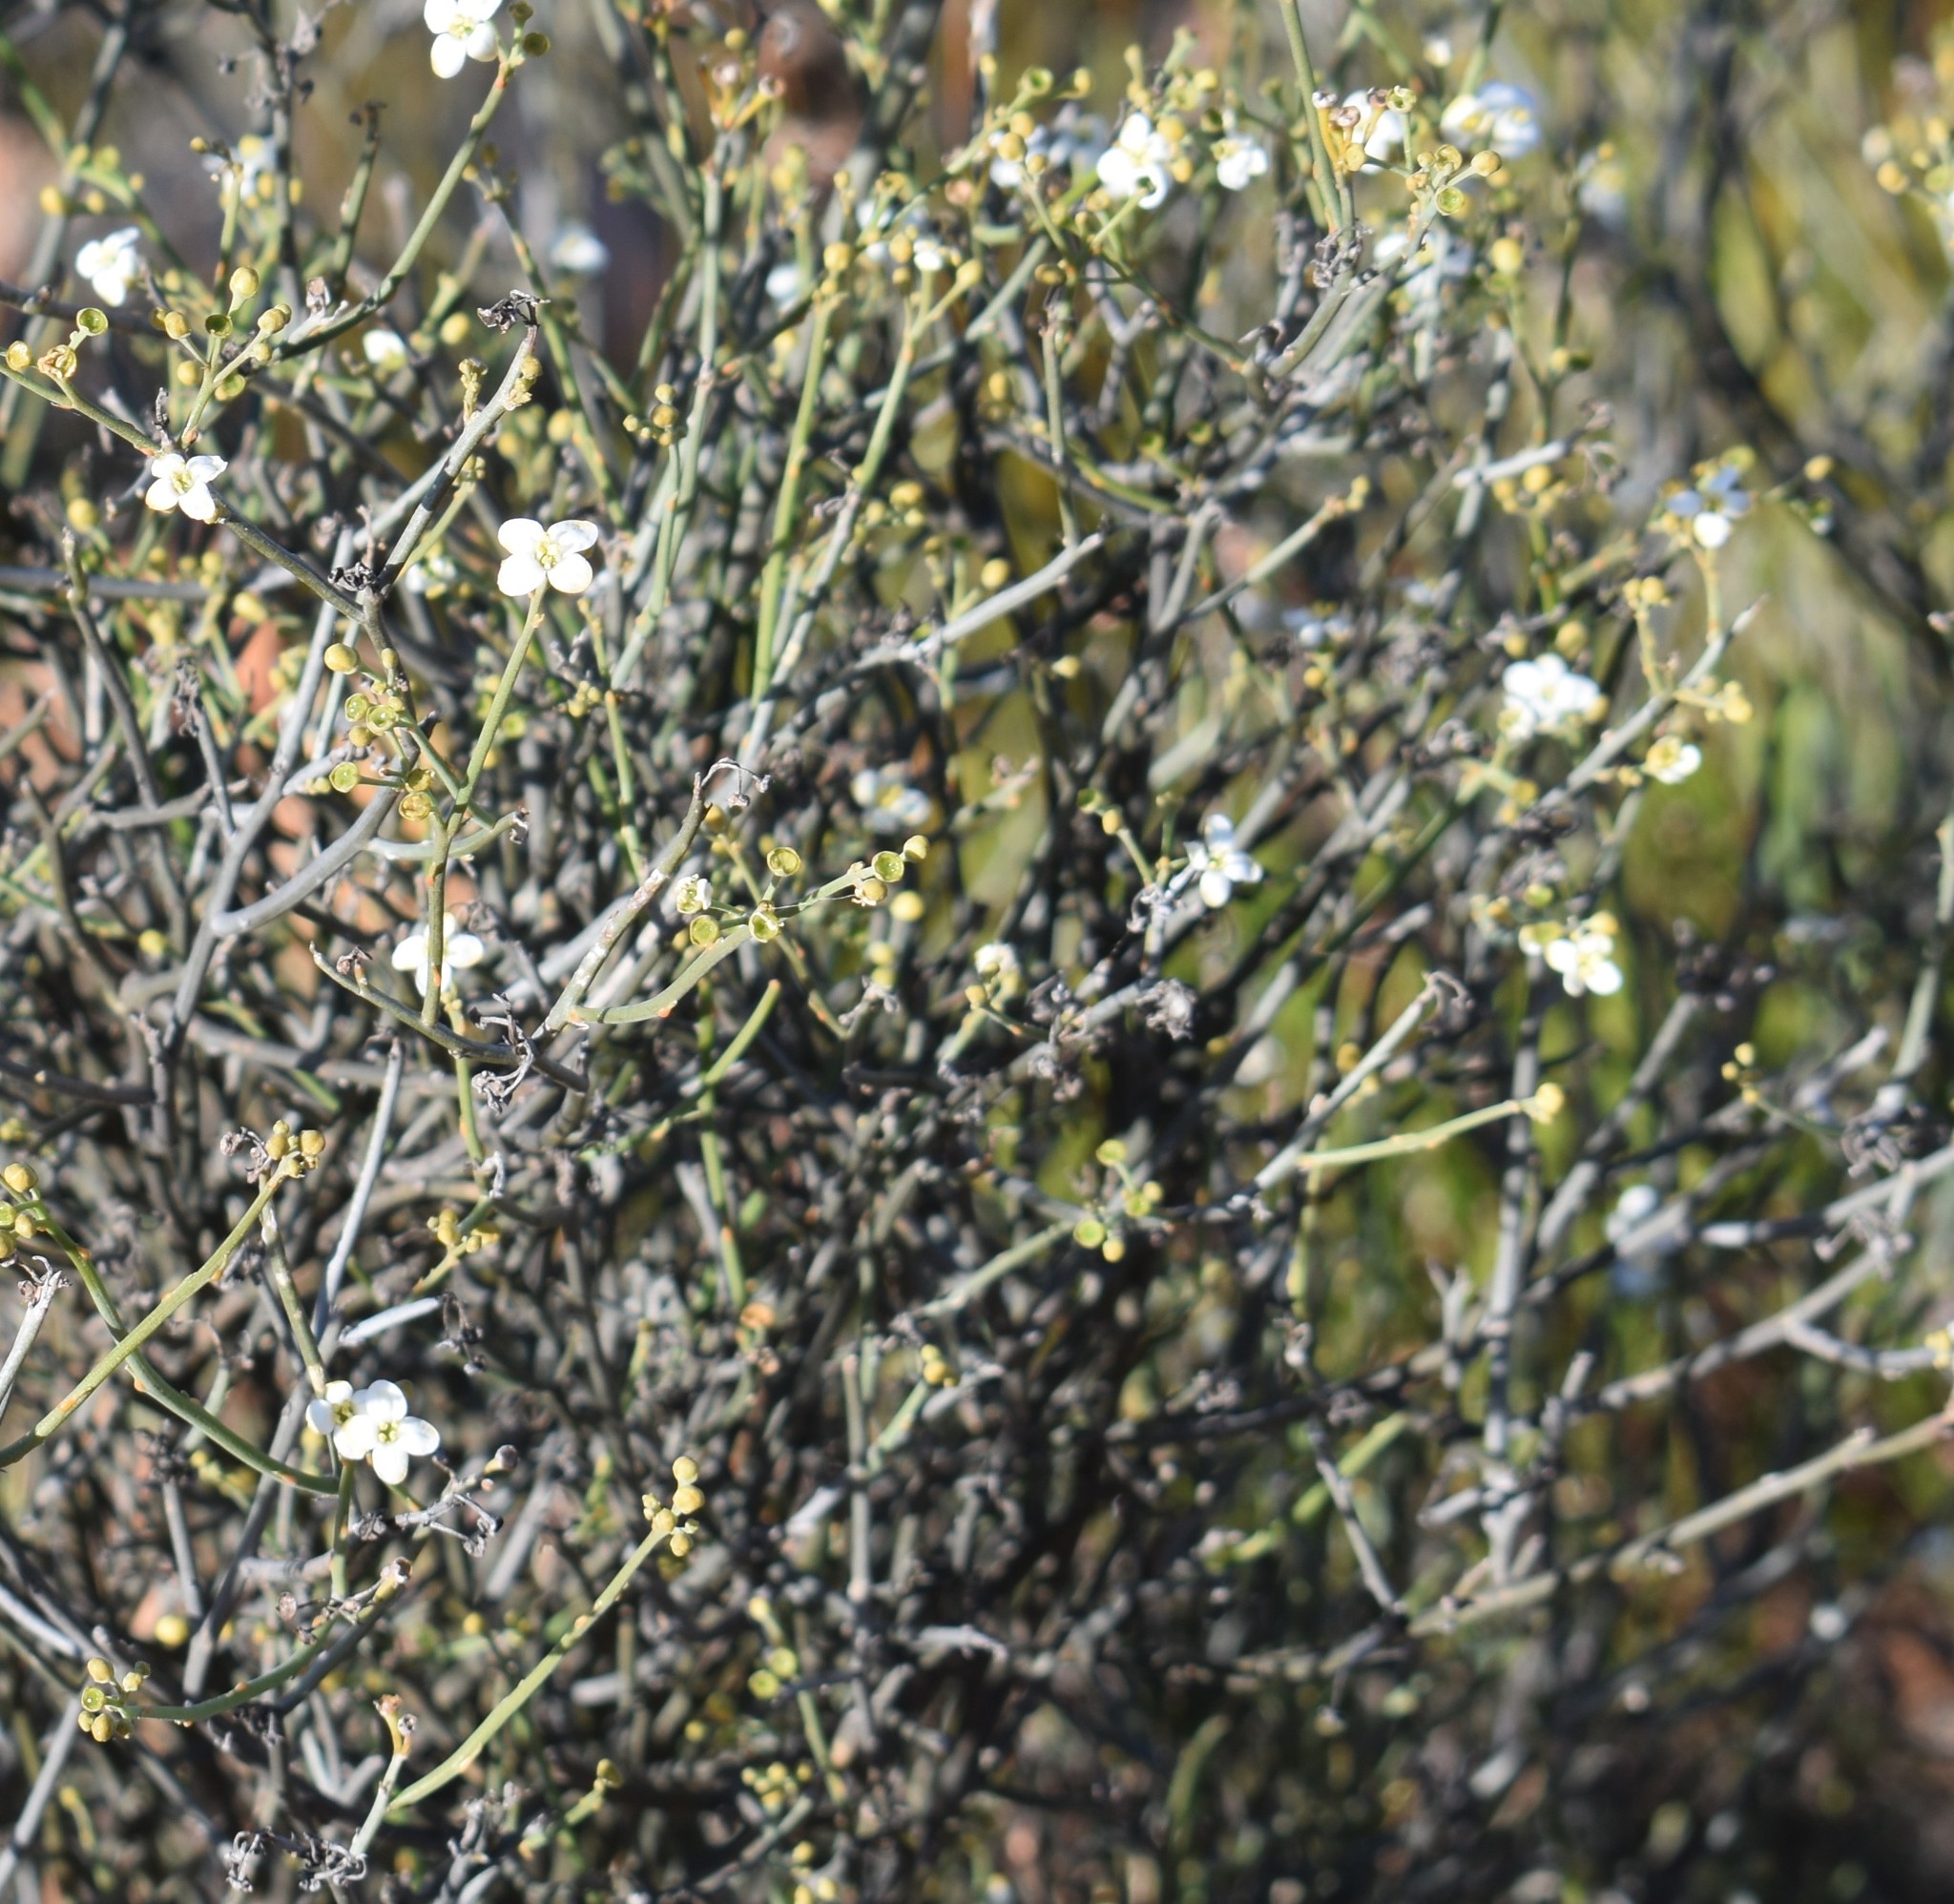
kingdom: Plantae
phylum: Tracheophyta
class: Magnoliopsida
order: Solanales
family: Montiniaceae
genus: Montinia
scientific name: Montinia caryophyllacea
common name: Wild clove-bush
